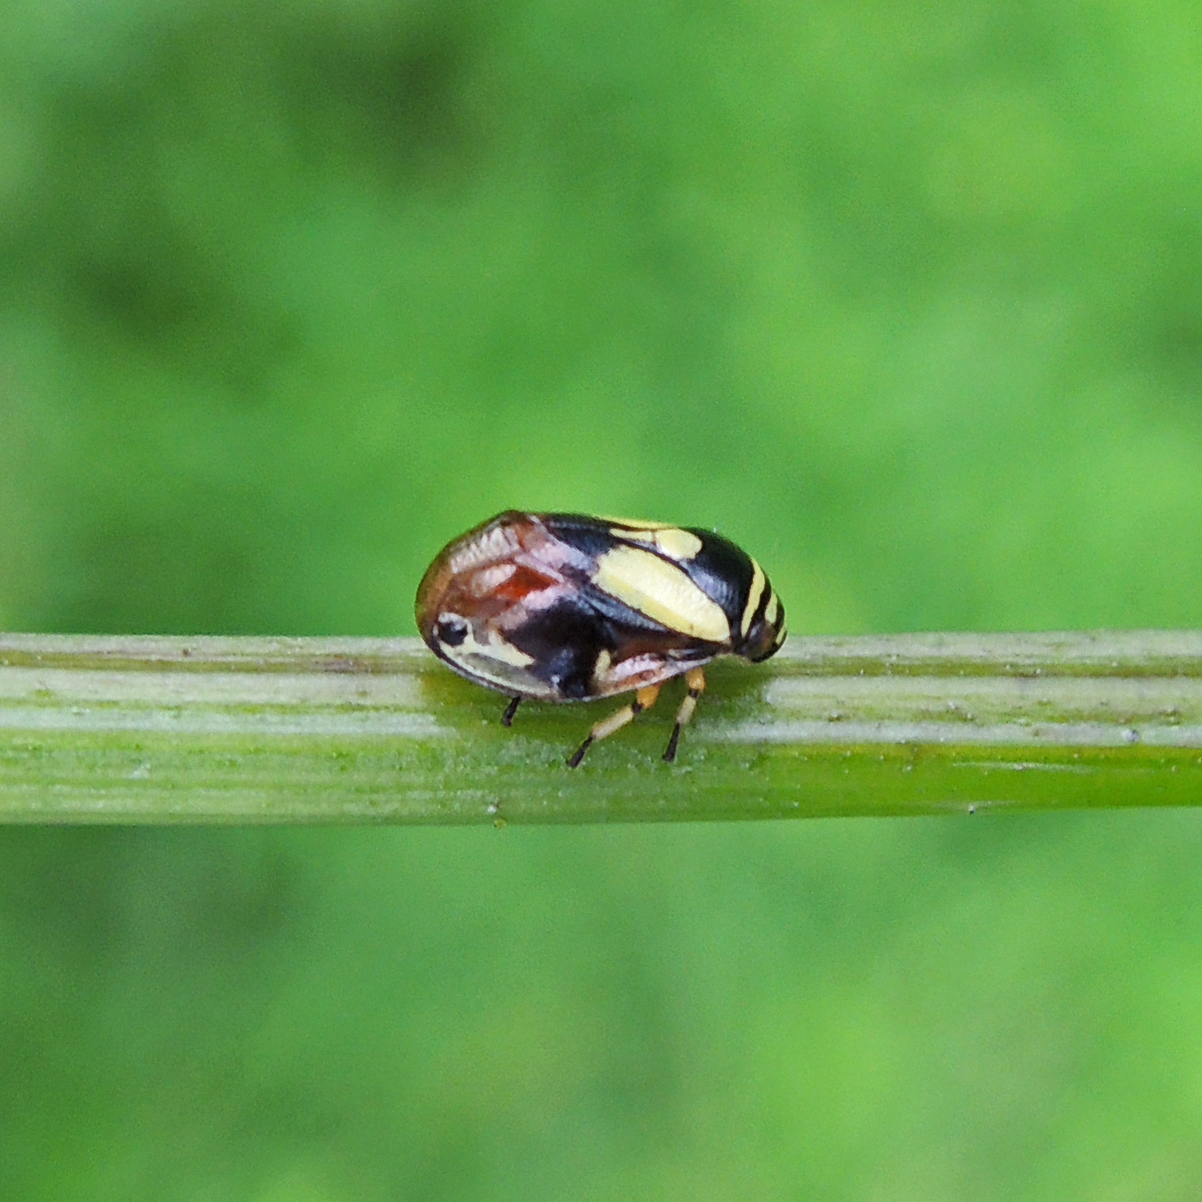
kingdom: Animalia
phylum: Arthropoda
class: Insecta
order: Hemiptera
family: Clastopteridae
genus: Clastoptera
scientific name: Clastoptera proteus
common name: Dogwood spittlebug
